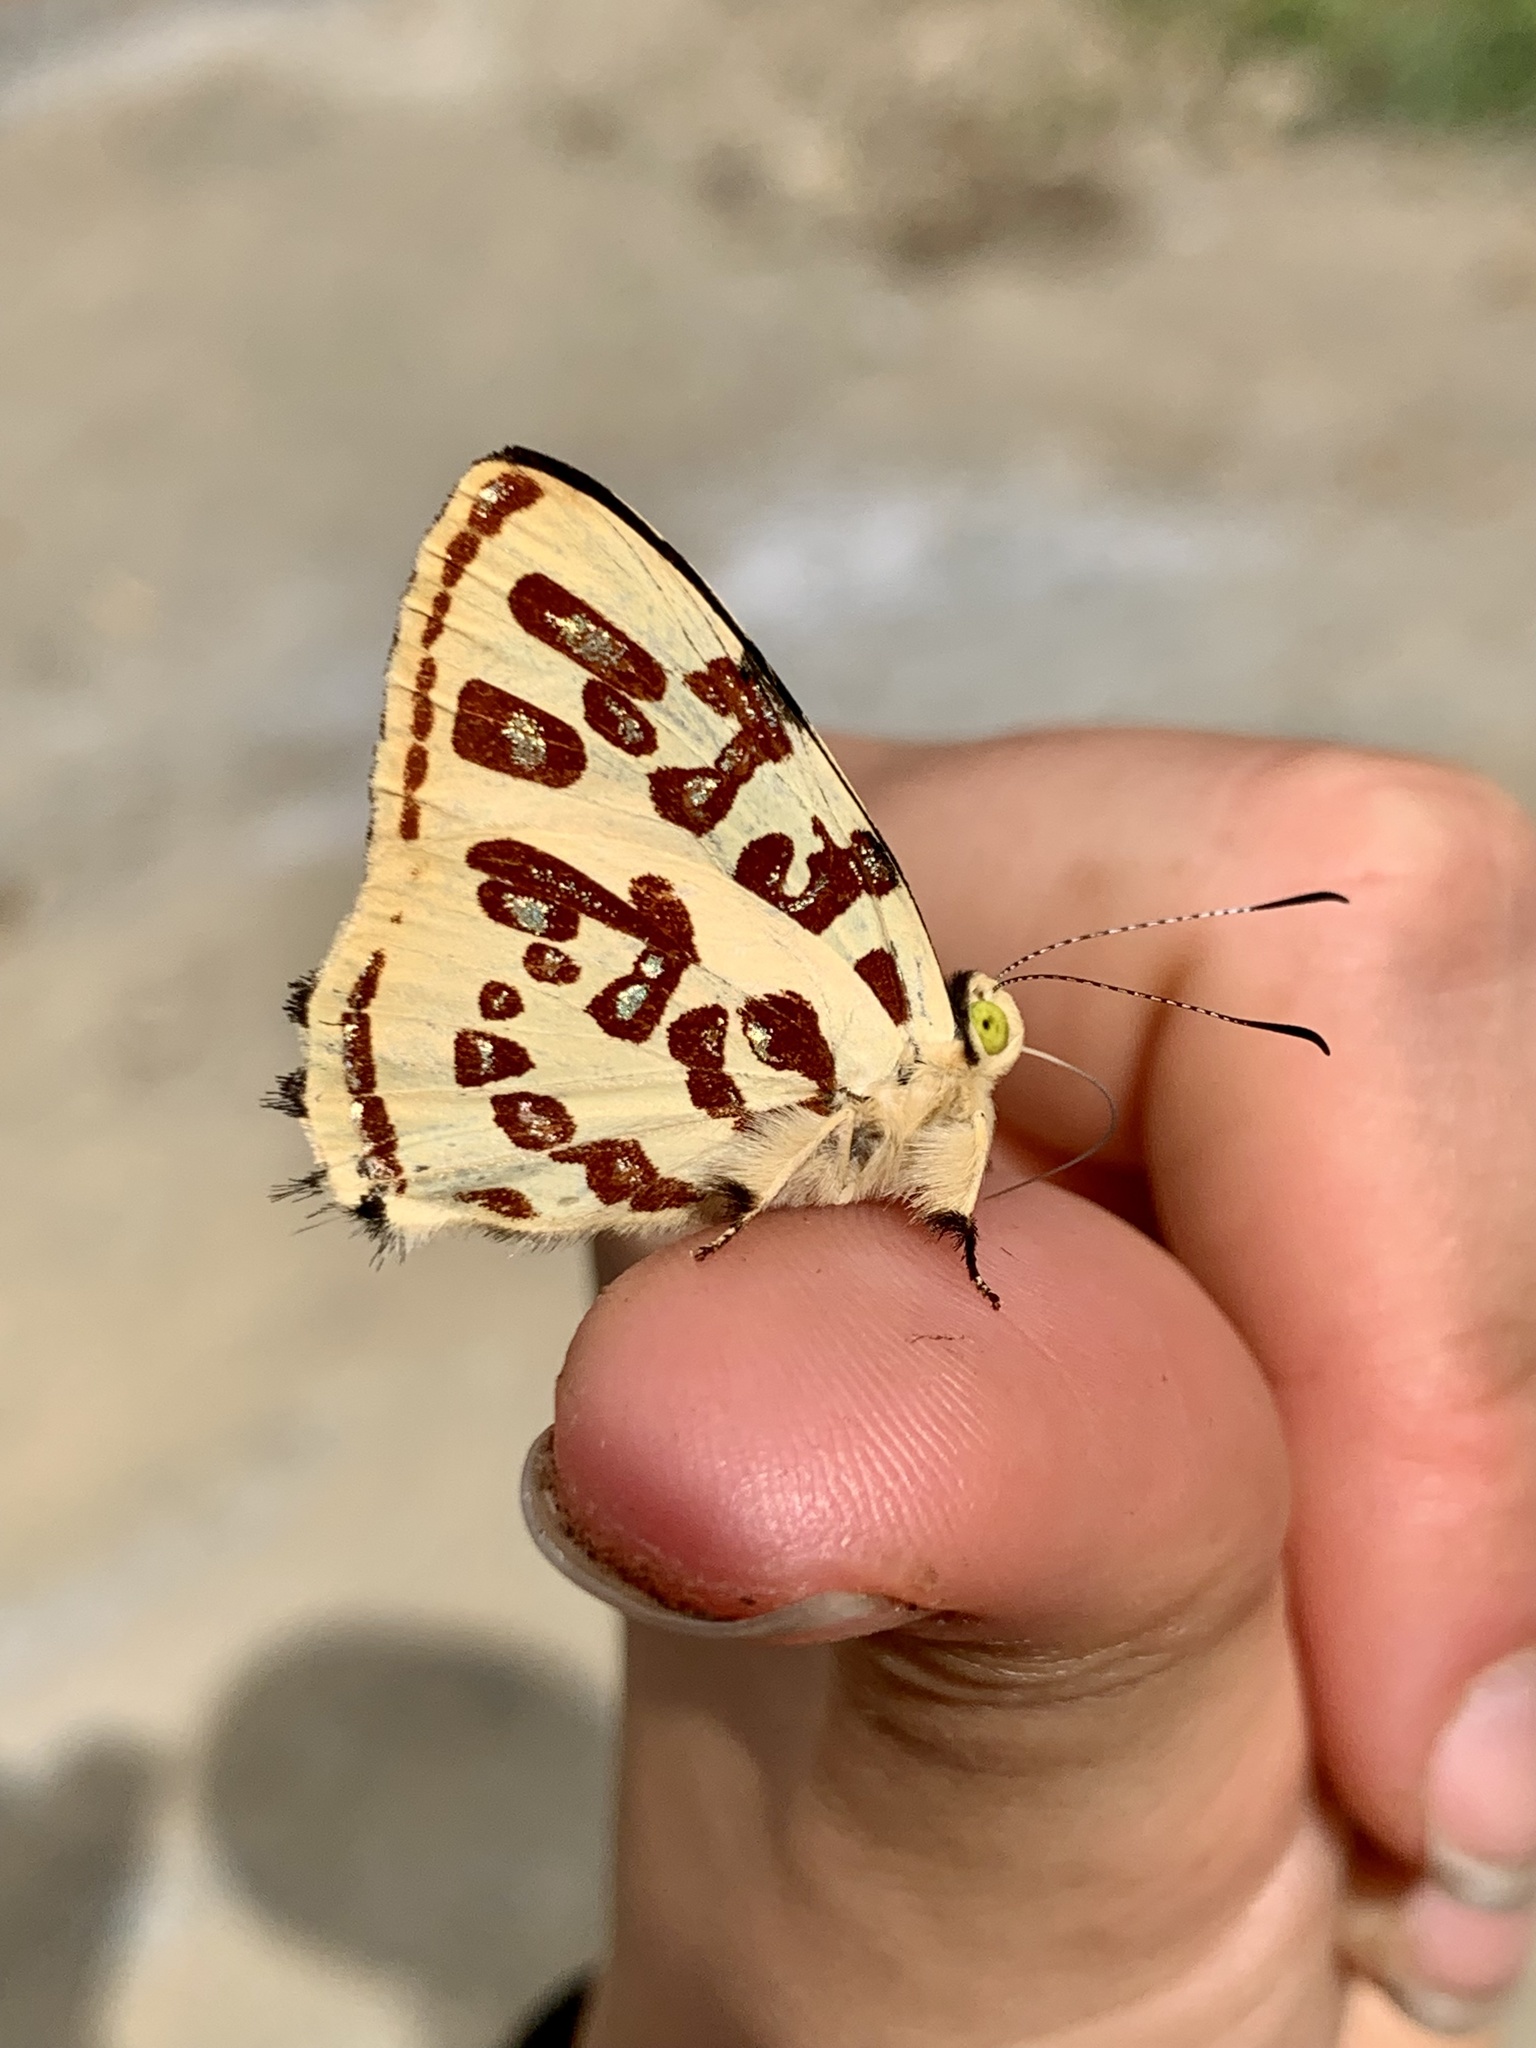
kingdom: Animalia
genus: Anteros
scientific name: Anteros kupris
